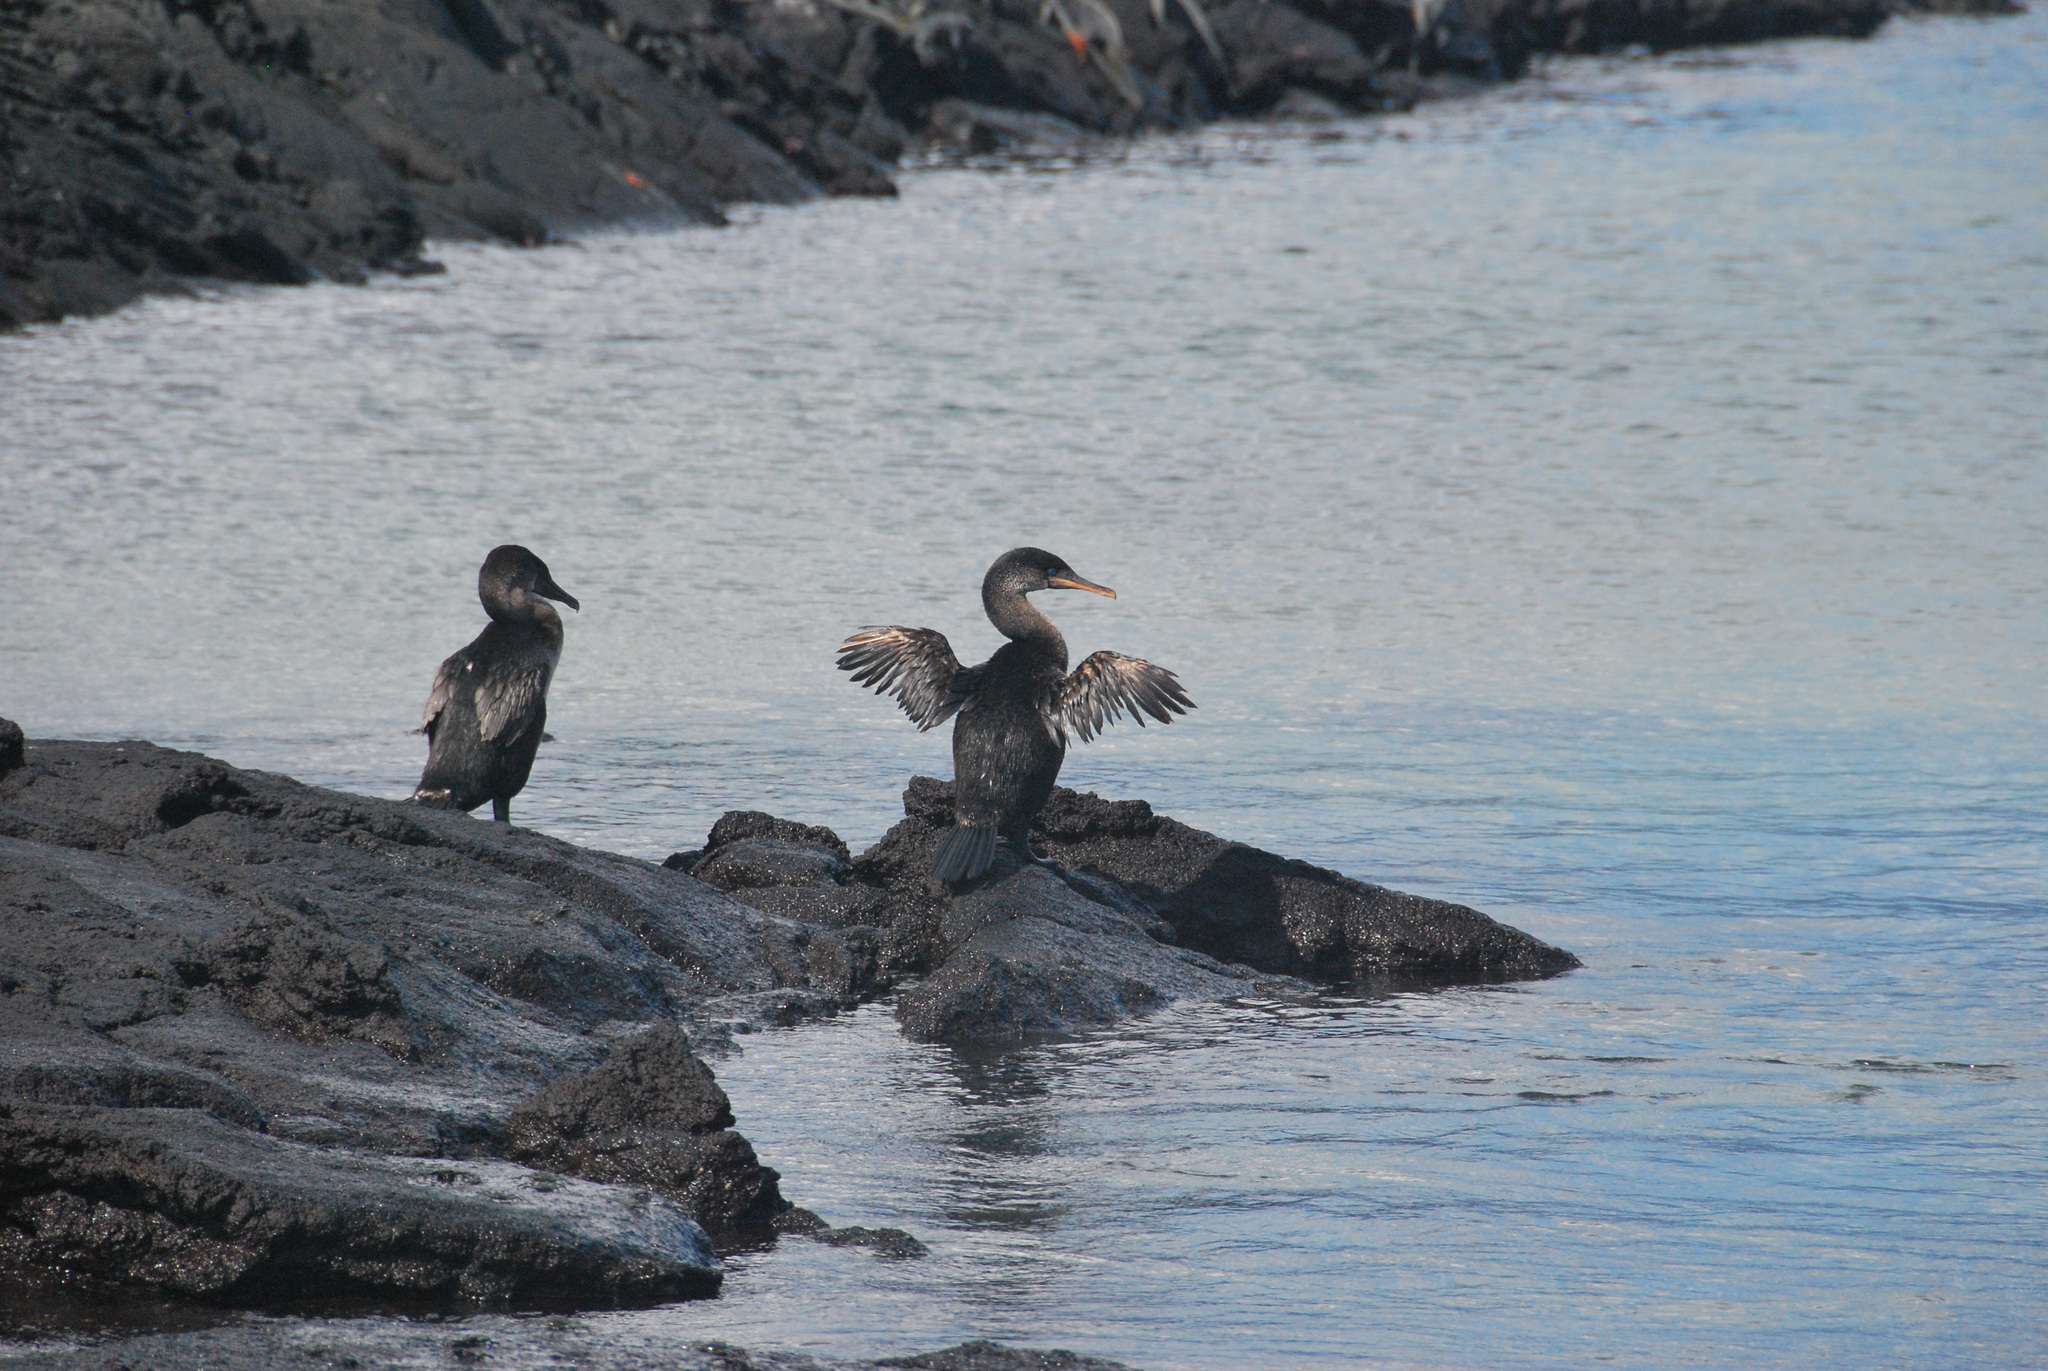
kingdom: Animalia
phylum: Chordata
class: Aves
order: Suliformes
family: Phalacrocoracidae
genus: Phalacrocorax
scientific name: Phalacrocorax harrisi
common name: Flightless cormorant
